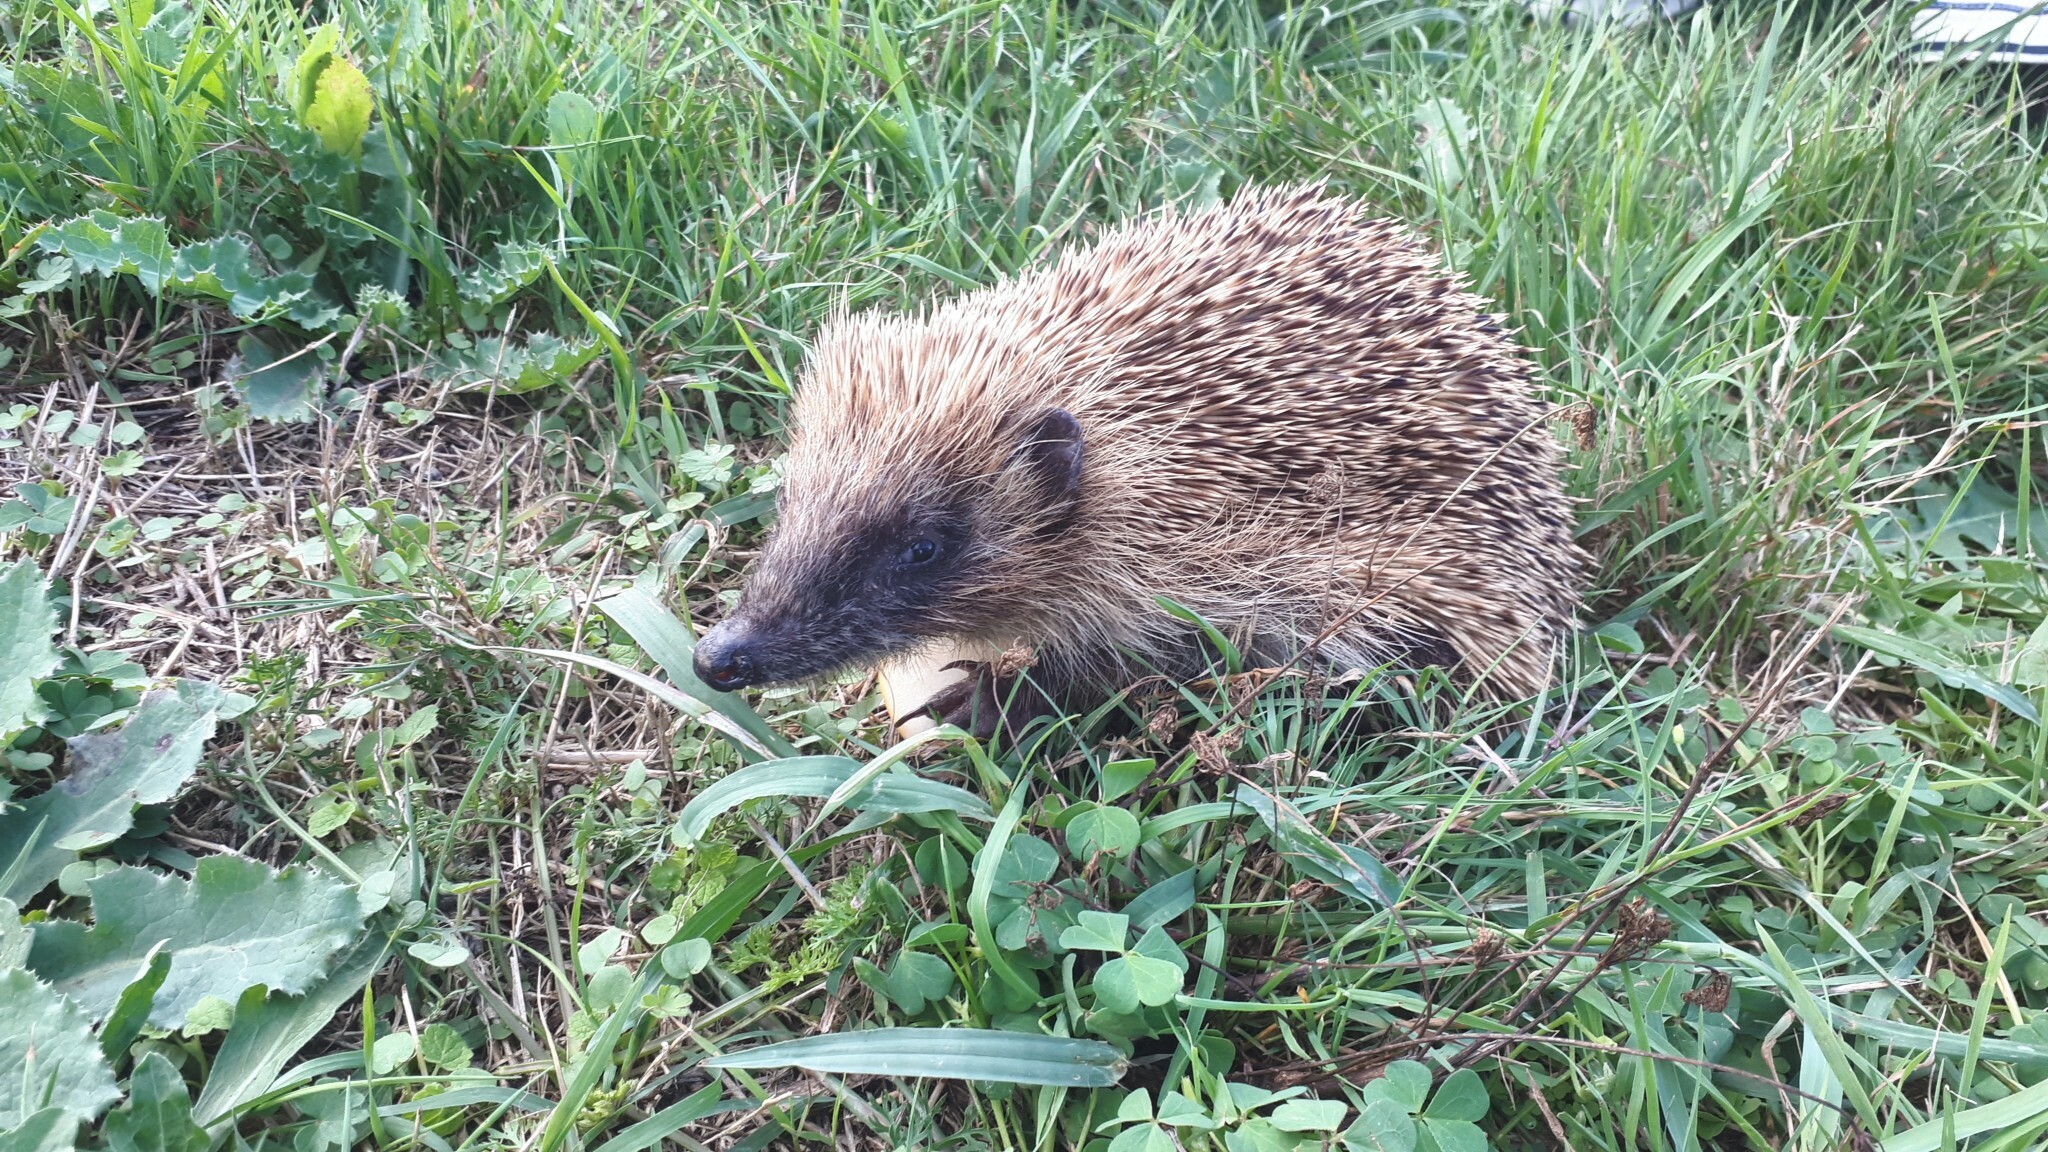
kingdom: Animalia
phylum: Chordata
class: Mammalia
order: Erinaceomorpha
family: Erinaceidae
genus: Erinaceus
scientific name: Erinaceus europaeus
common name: West european hedgehog
